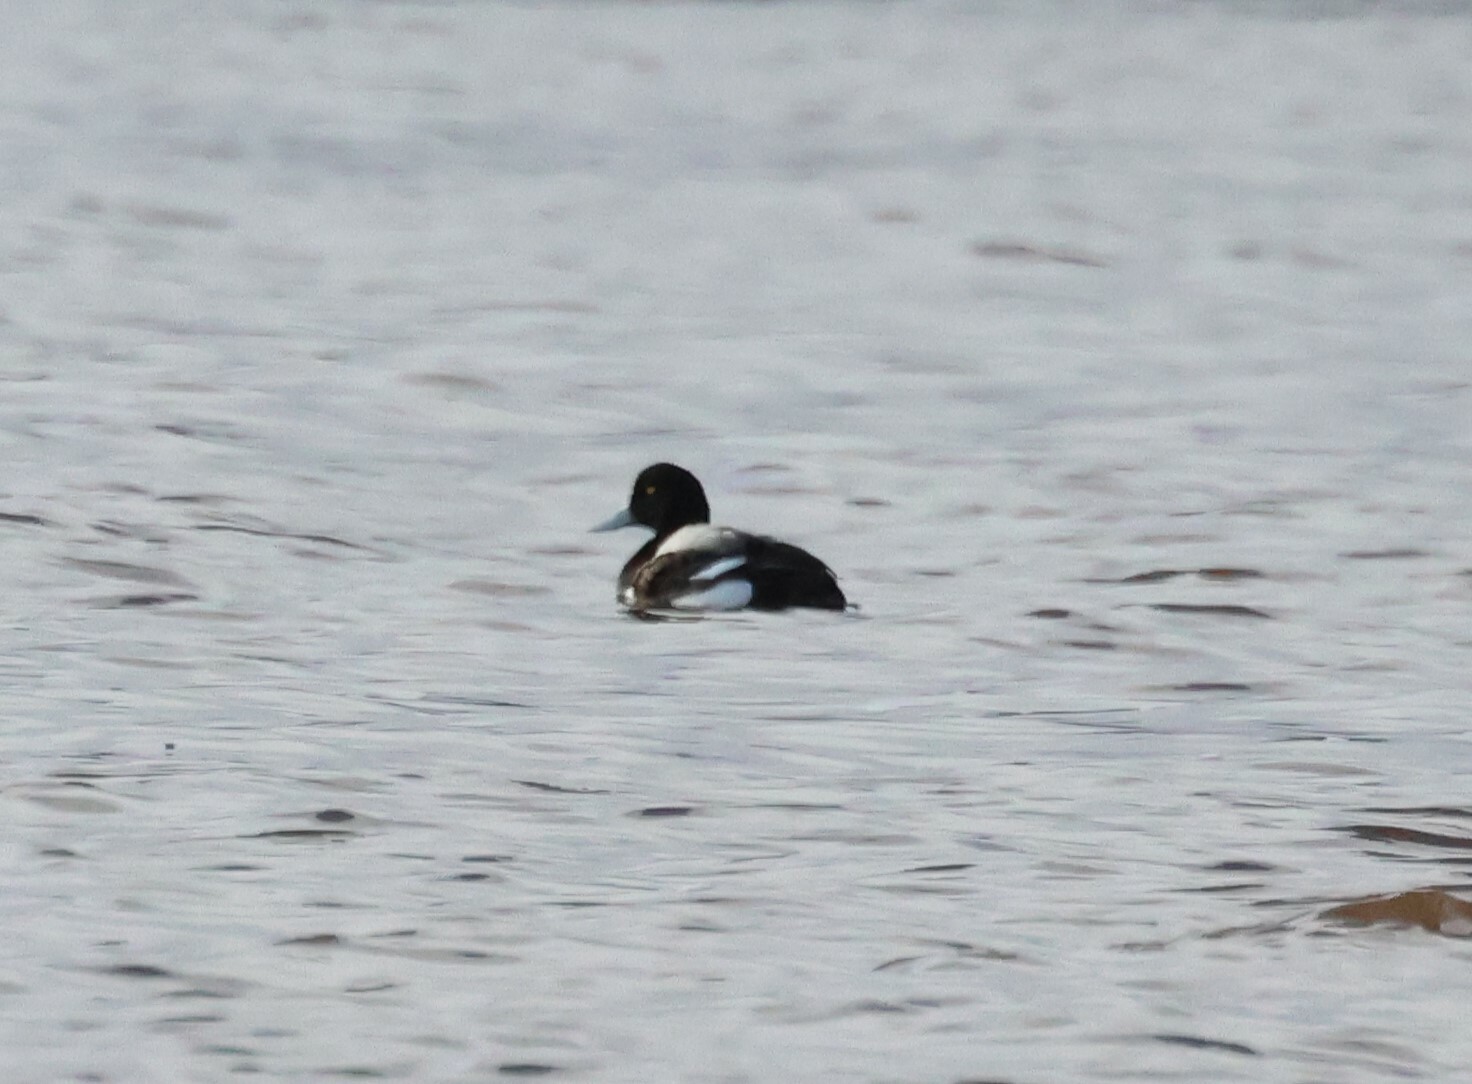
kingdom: Animalia
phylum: Chordata
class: Aves
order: Anseriformes
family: Anatidae
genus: Aythya
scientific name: Aythya marila
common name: Greater scaup
